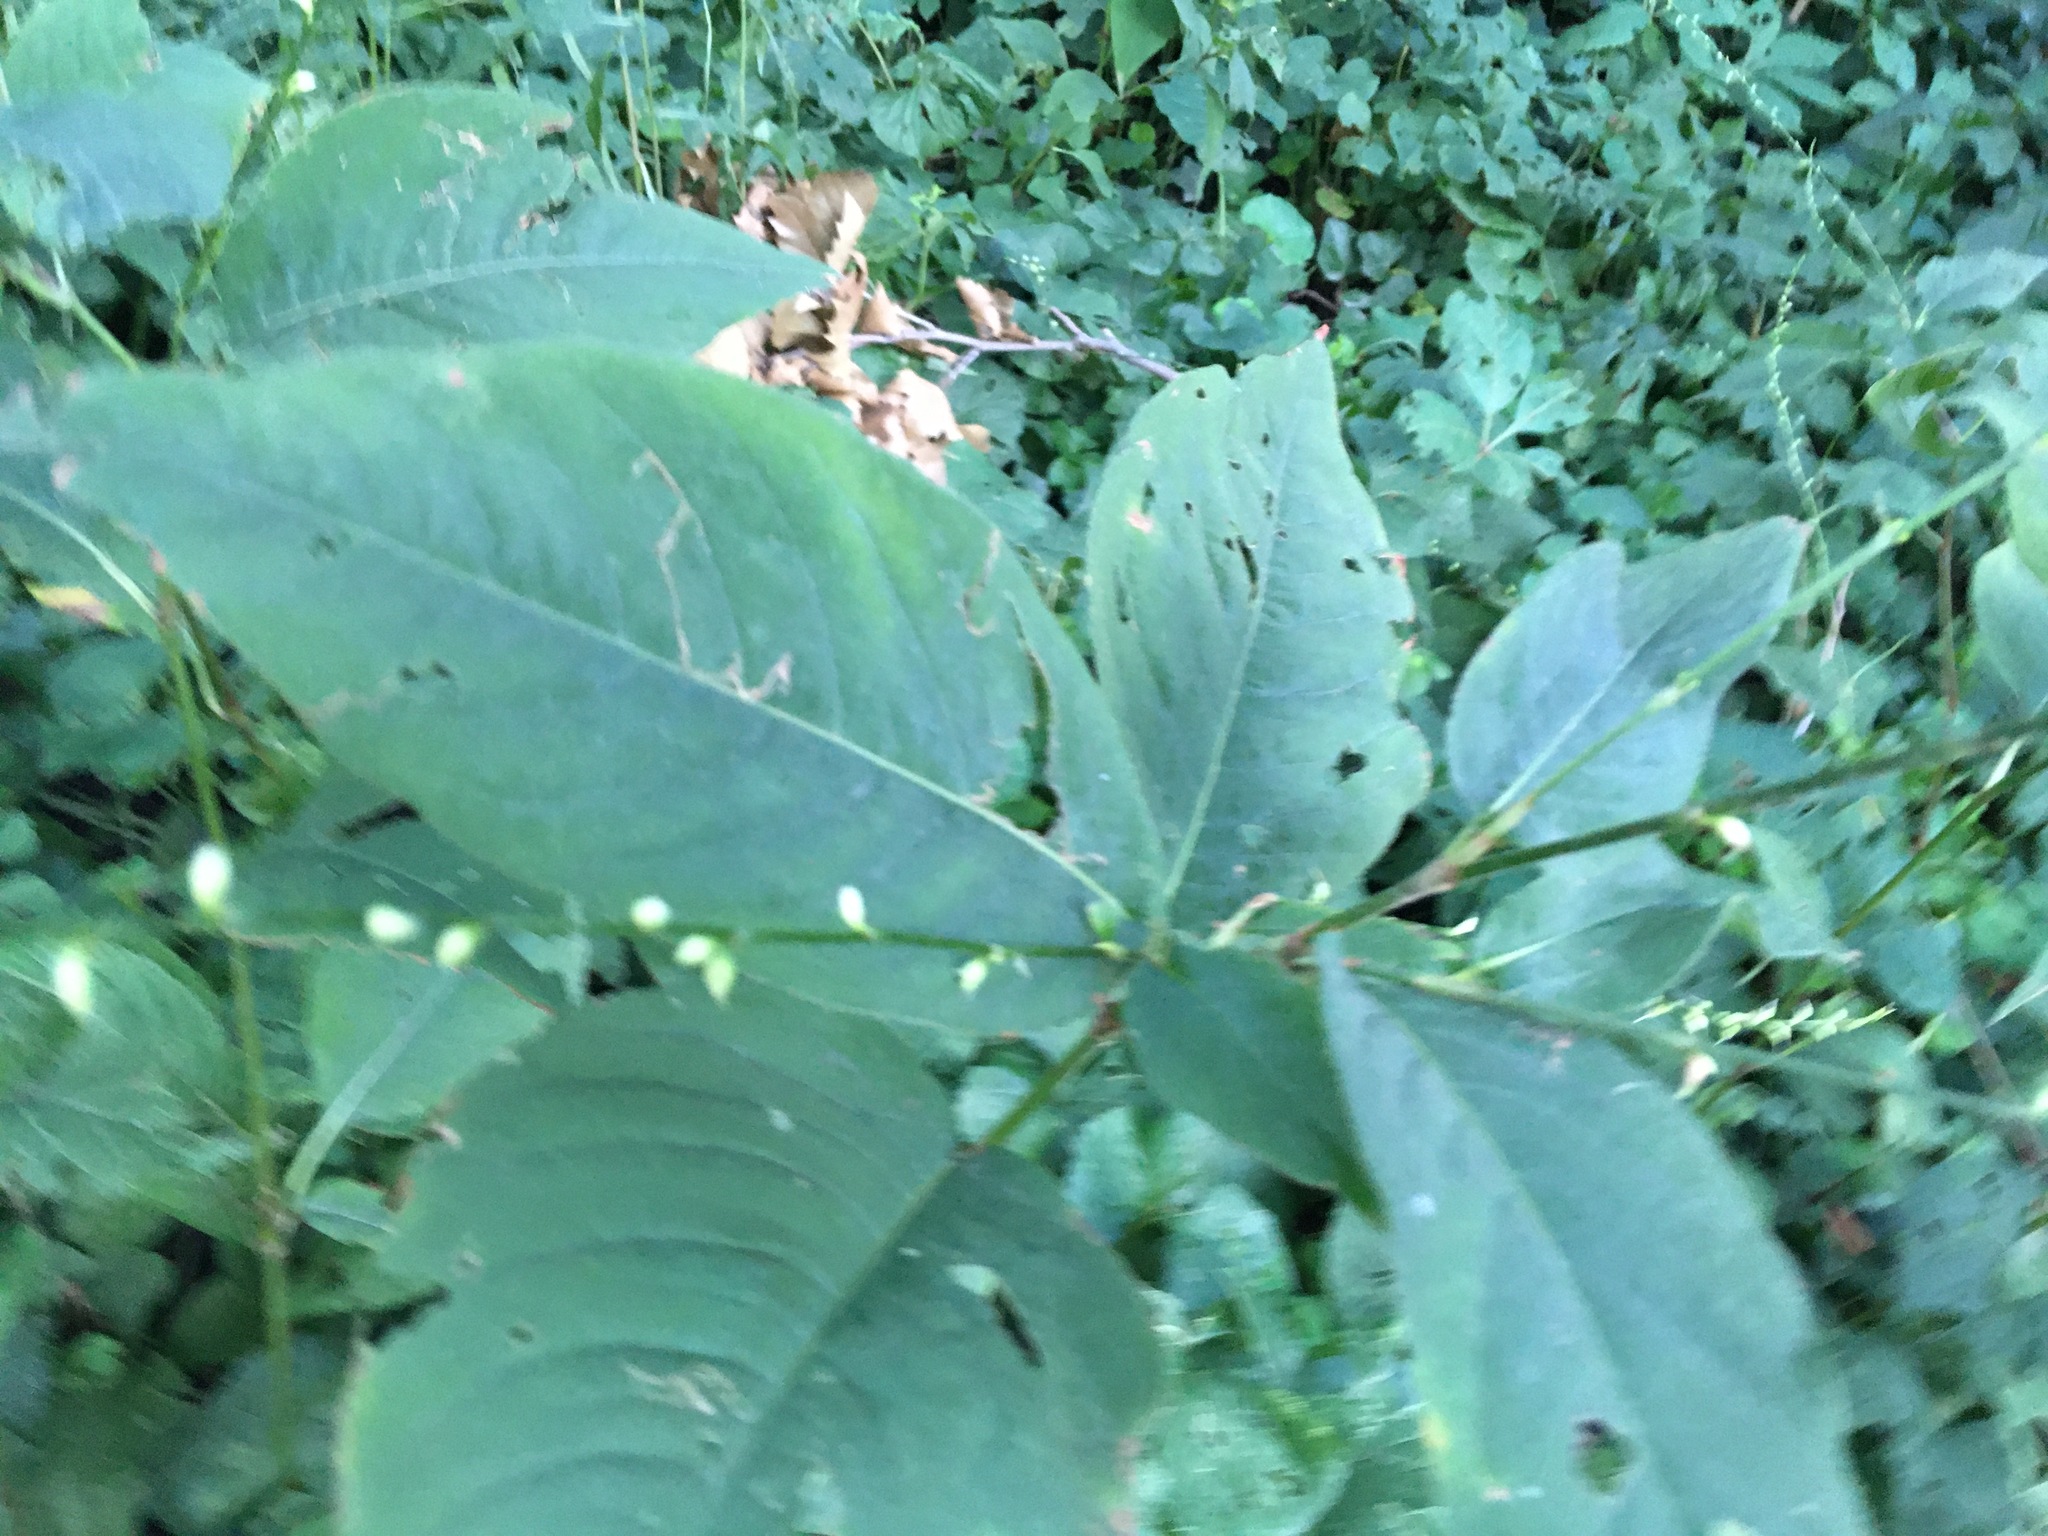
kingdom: Plantae
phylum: Tracheophyta
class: Magnoliopsida
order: Caryophyllales
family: Polygonaceae
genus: Persicaria
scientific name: Persicaria virginiana
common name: Jumpseed
